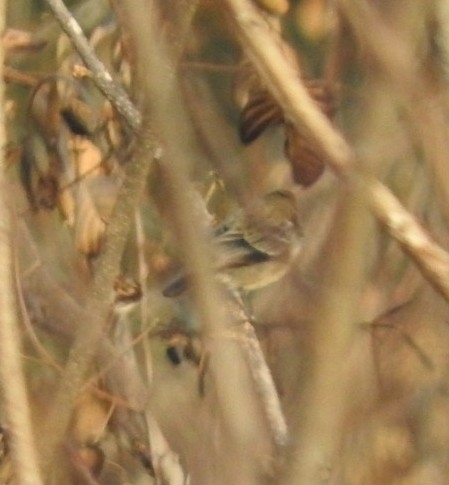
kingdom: Animalia
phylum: Chordata
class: Aves
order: Passeriformes
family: Thraupidae
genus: Volatinia
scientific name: Volatinia jacarina
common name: Blue-black grassquit
